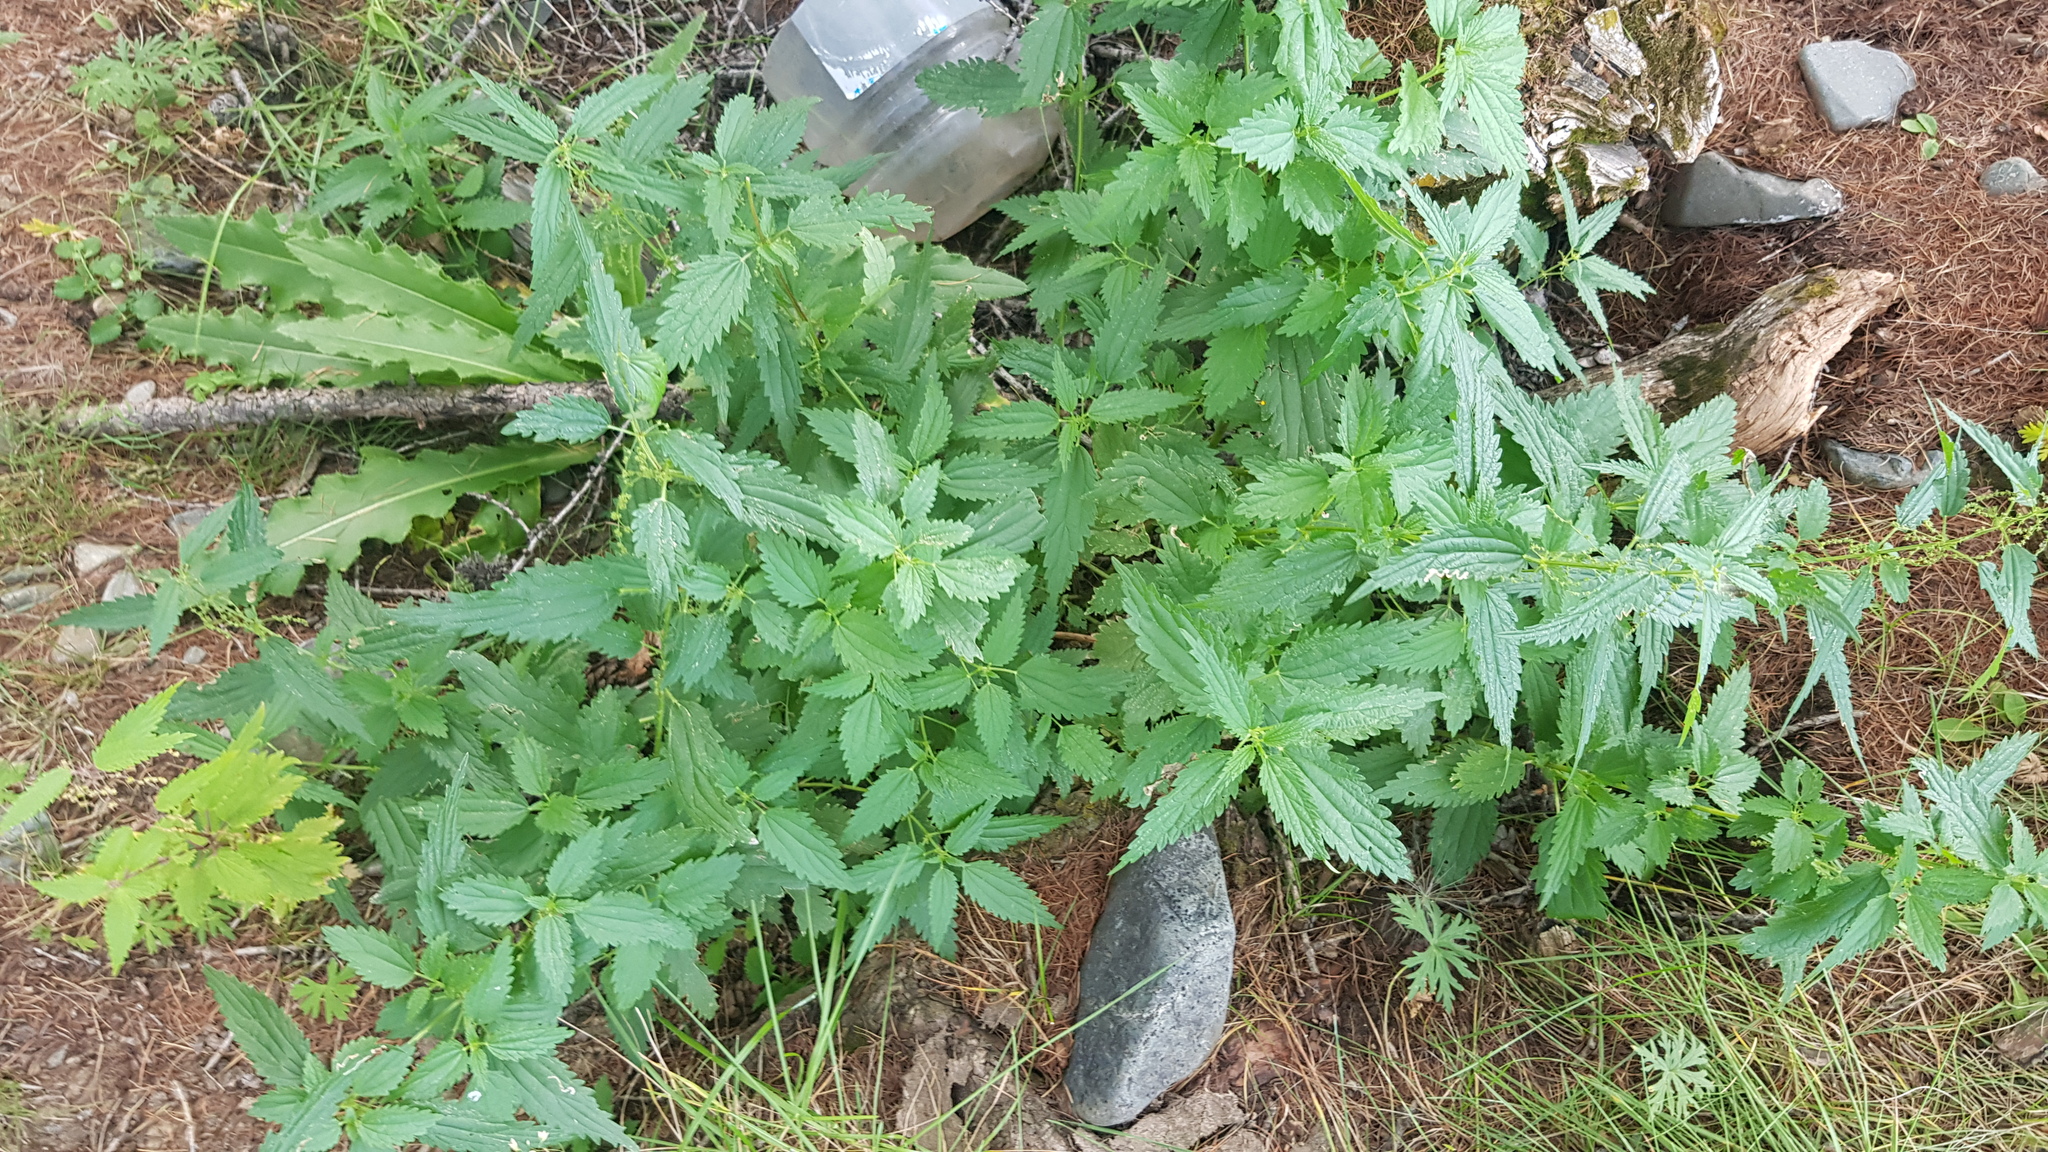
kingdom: Plantae
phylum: Tracheophyta
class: Magnoliopsida
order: Rosales
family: Urticaceae
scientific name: Urticaceae
